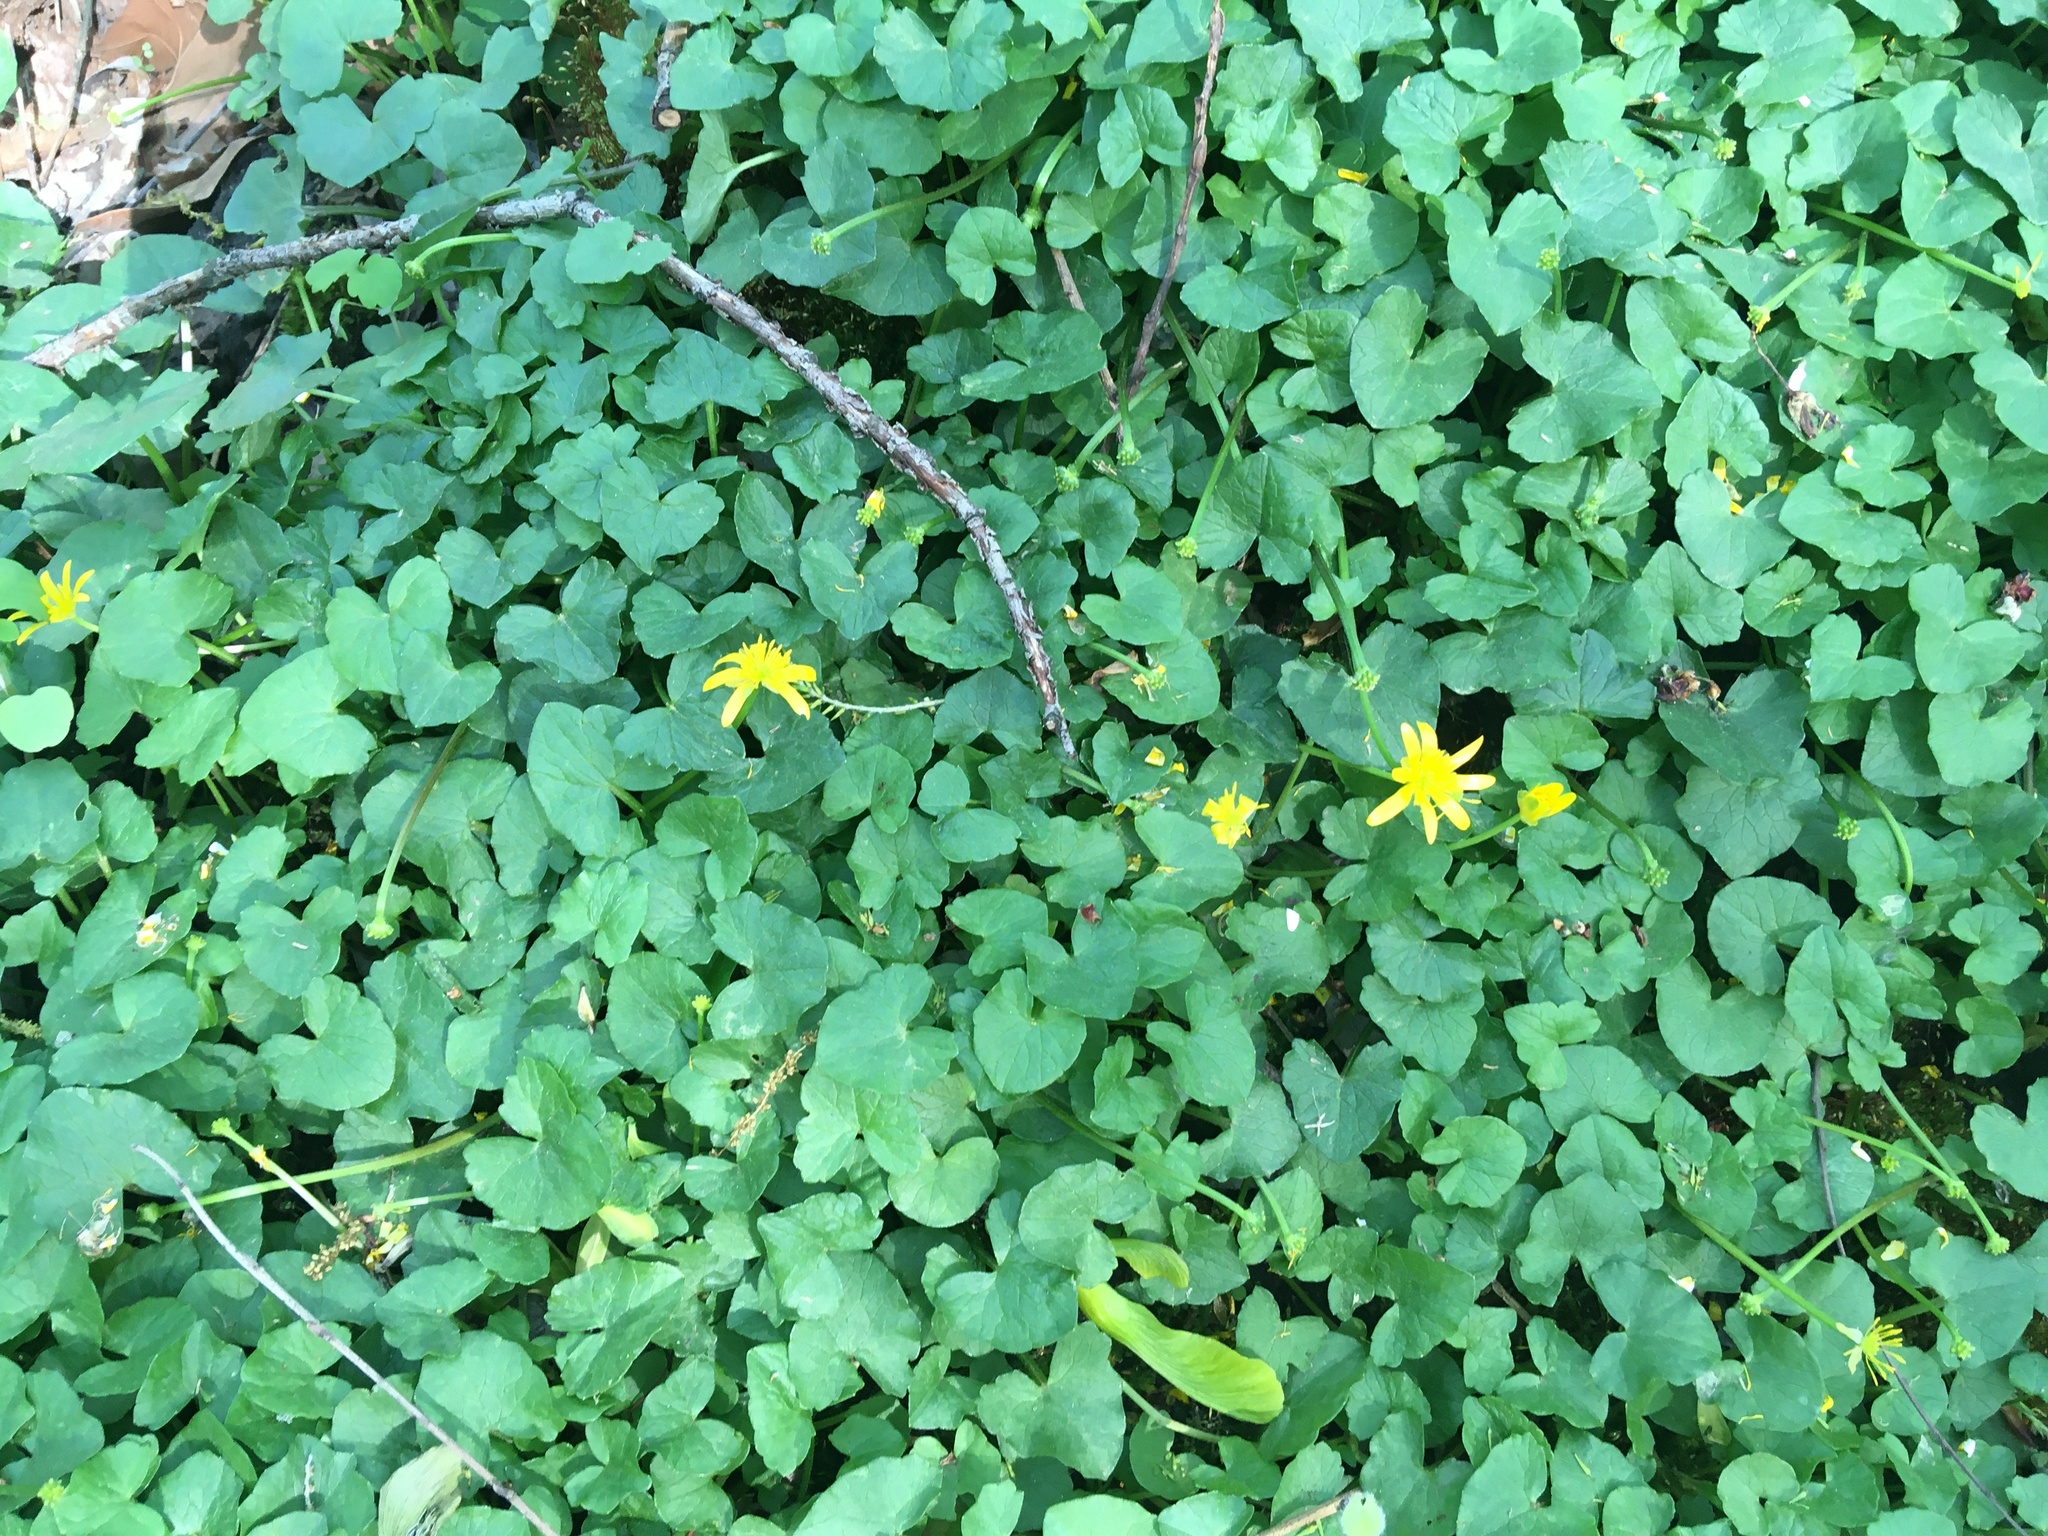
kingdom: Plantae
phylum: Tracheophyta
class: Magnoliopsida
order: Ranunculales
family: Ranunculaceae
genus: Ficaria
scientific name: Ficaria verna
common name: Lesser celandine
